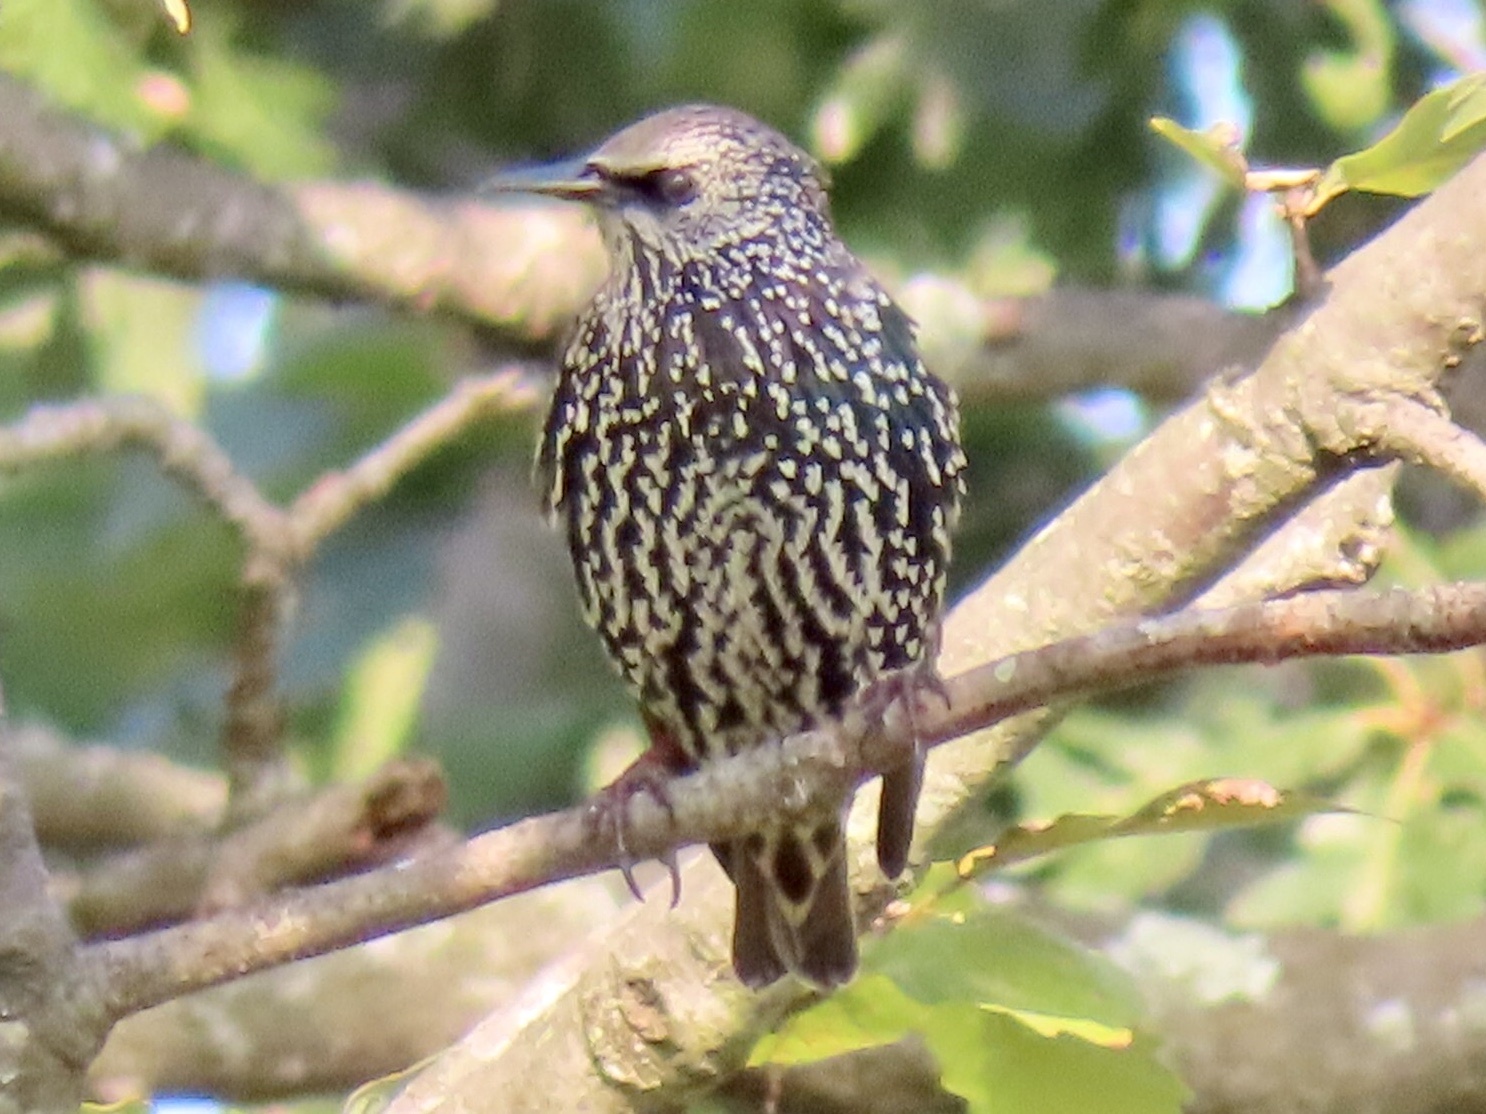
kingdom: Animalia
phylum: Chordata
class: Aves
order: Passeriformes
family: Sturnidae
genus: Sturnus
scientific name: Sturnus vulgaris
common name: Common starling
